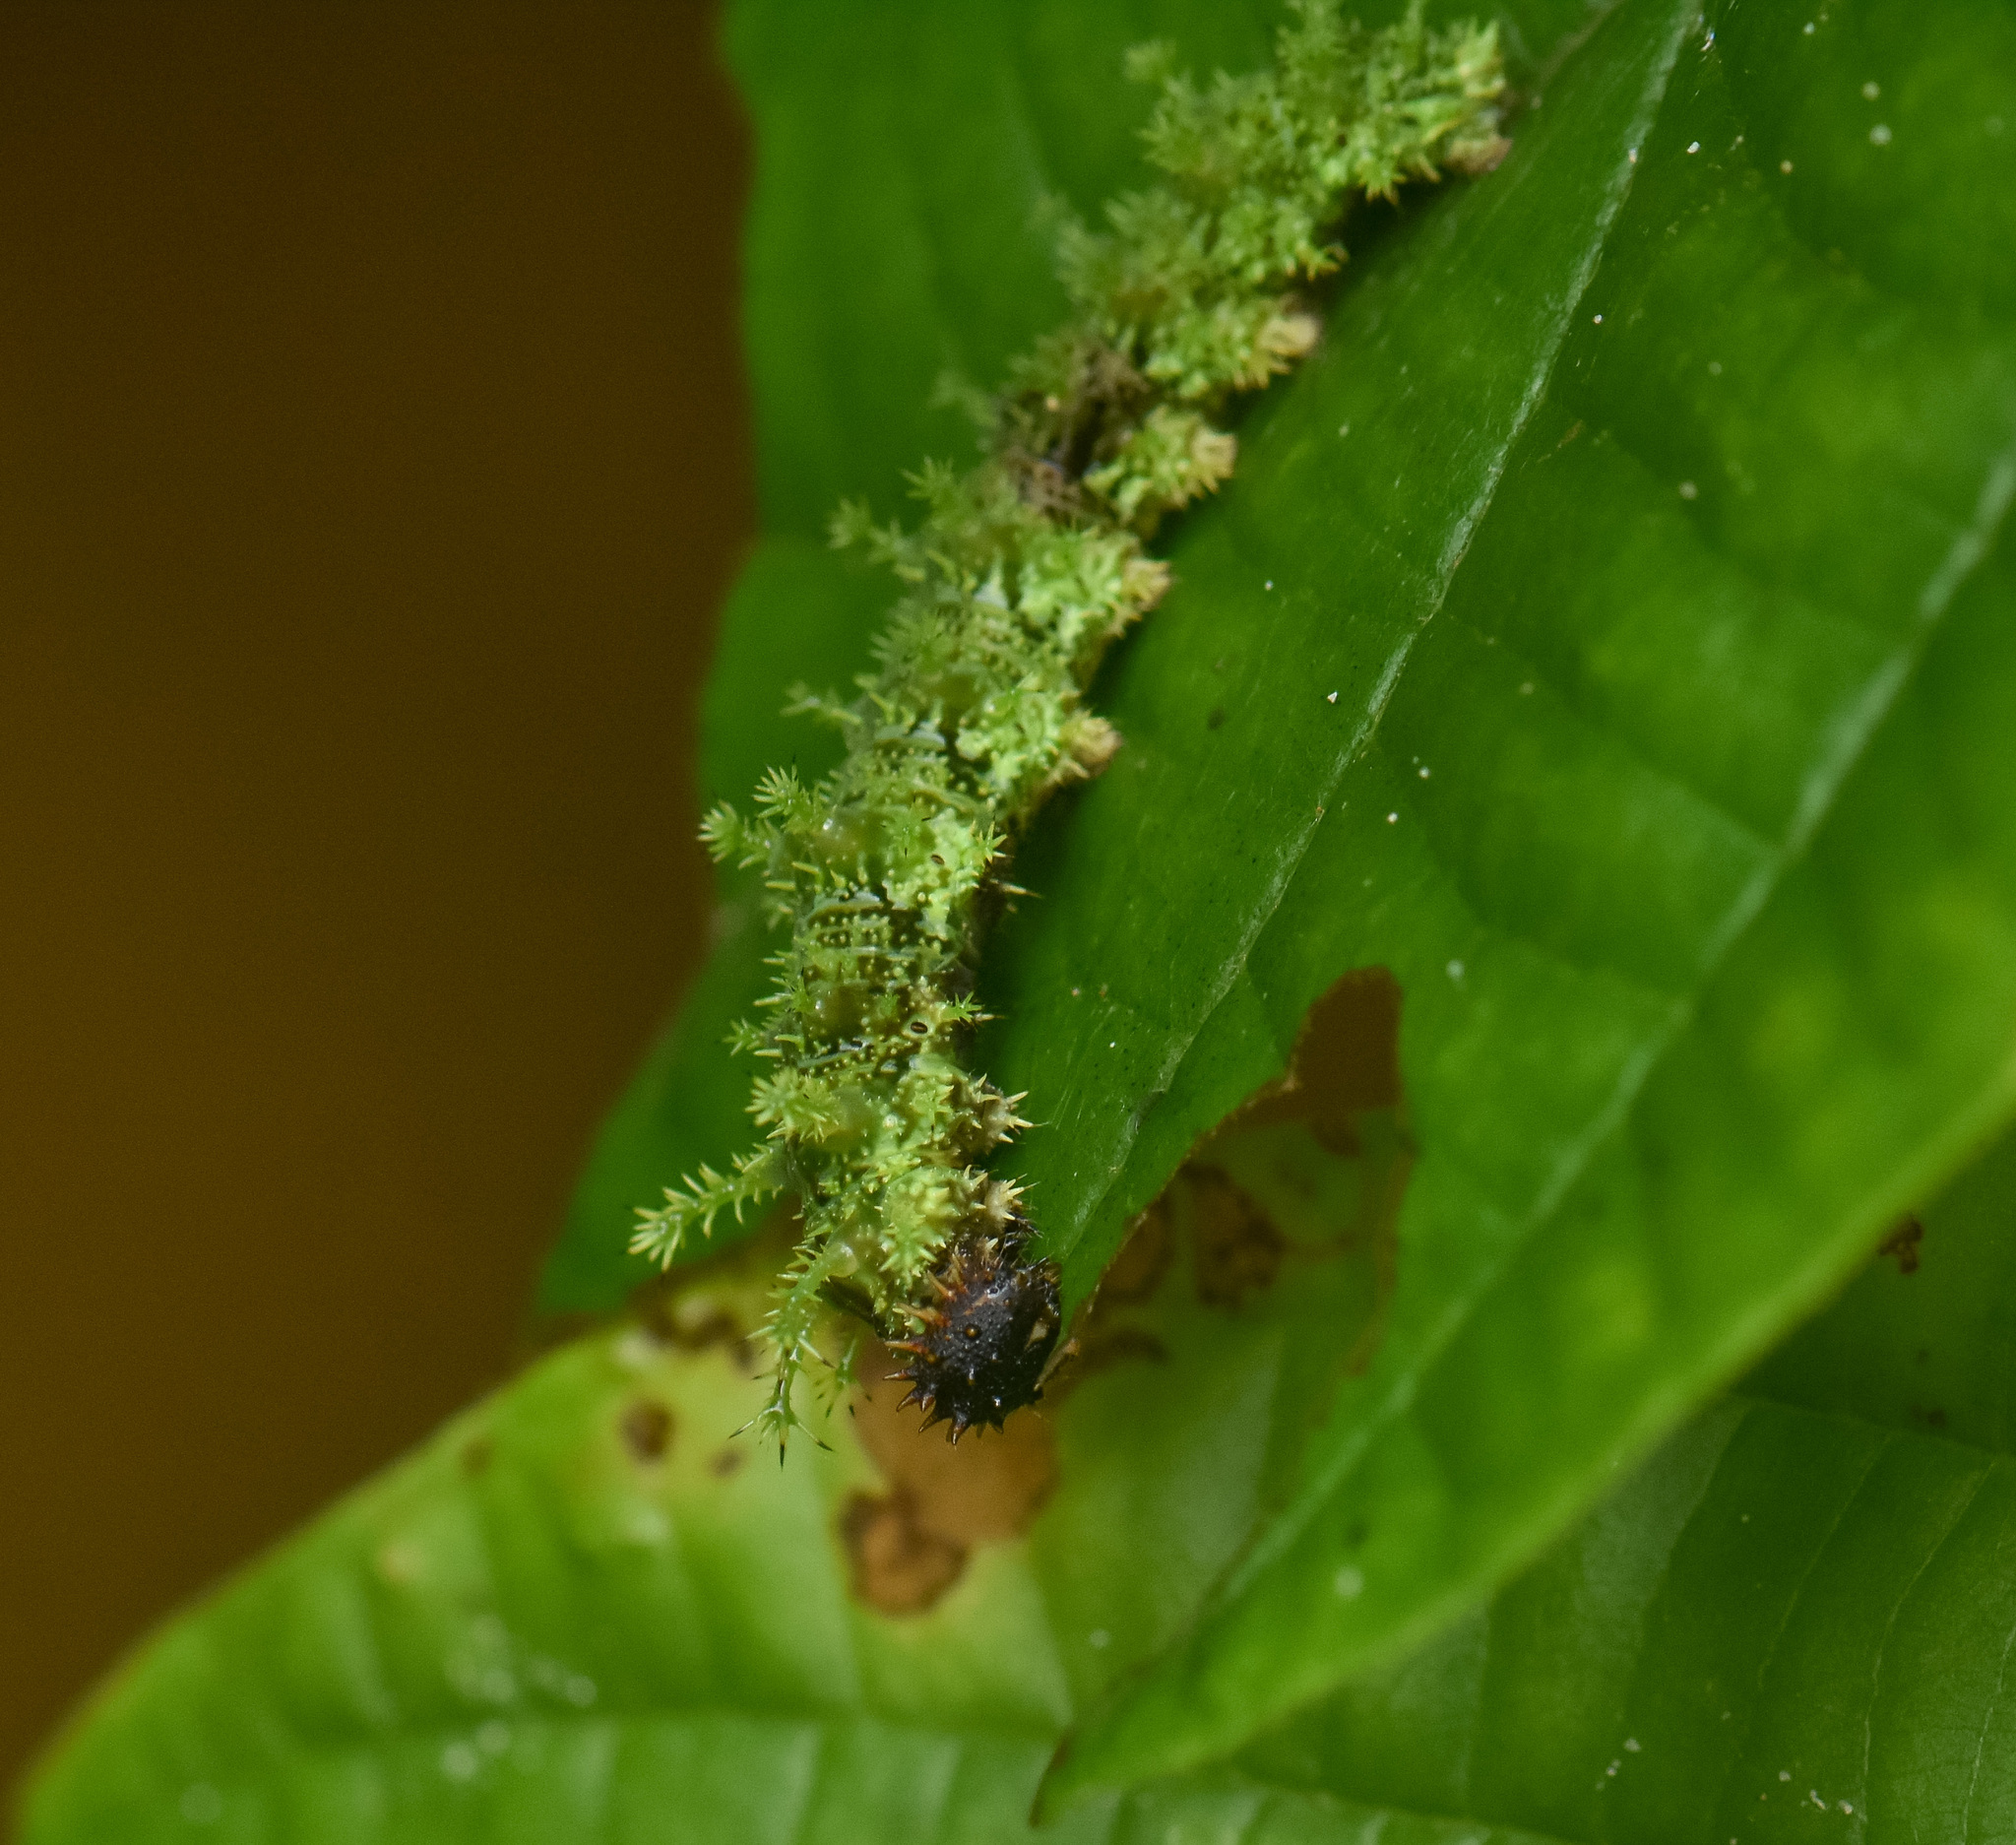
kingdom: Animalia
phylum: Arthropoda
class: Insecta
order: Lepidoptera
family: Nymphalidae
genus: Parathyma
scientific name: Parathyma kanwa
